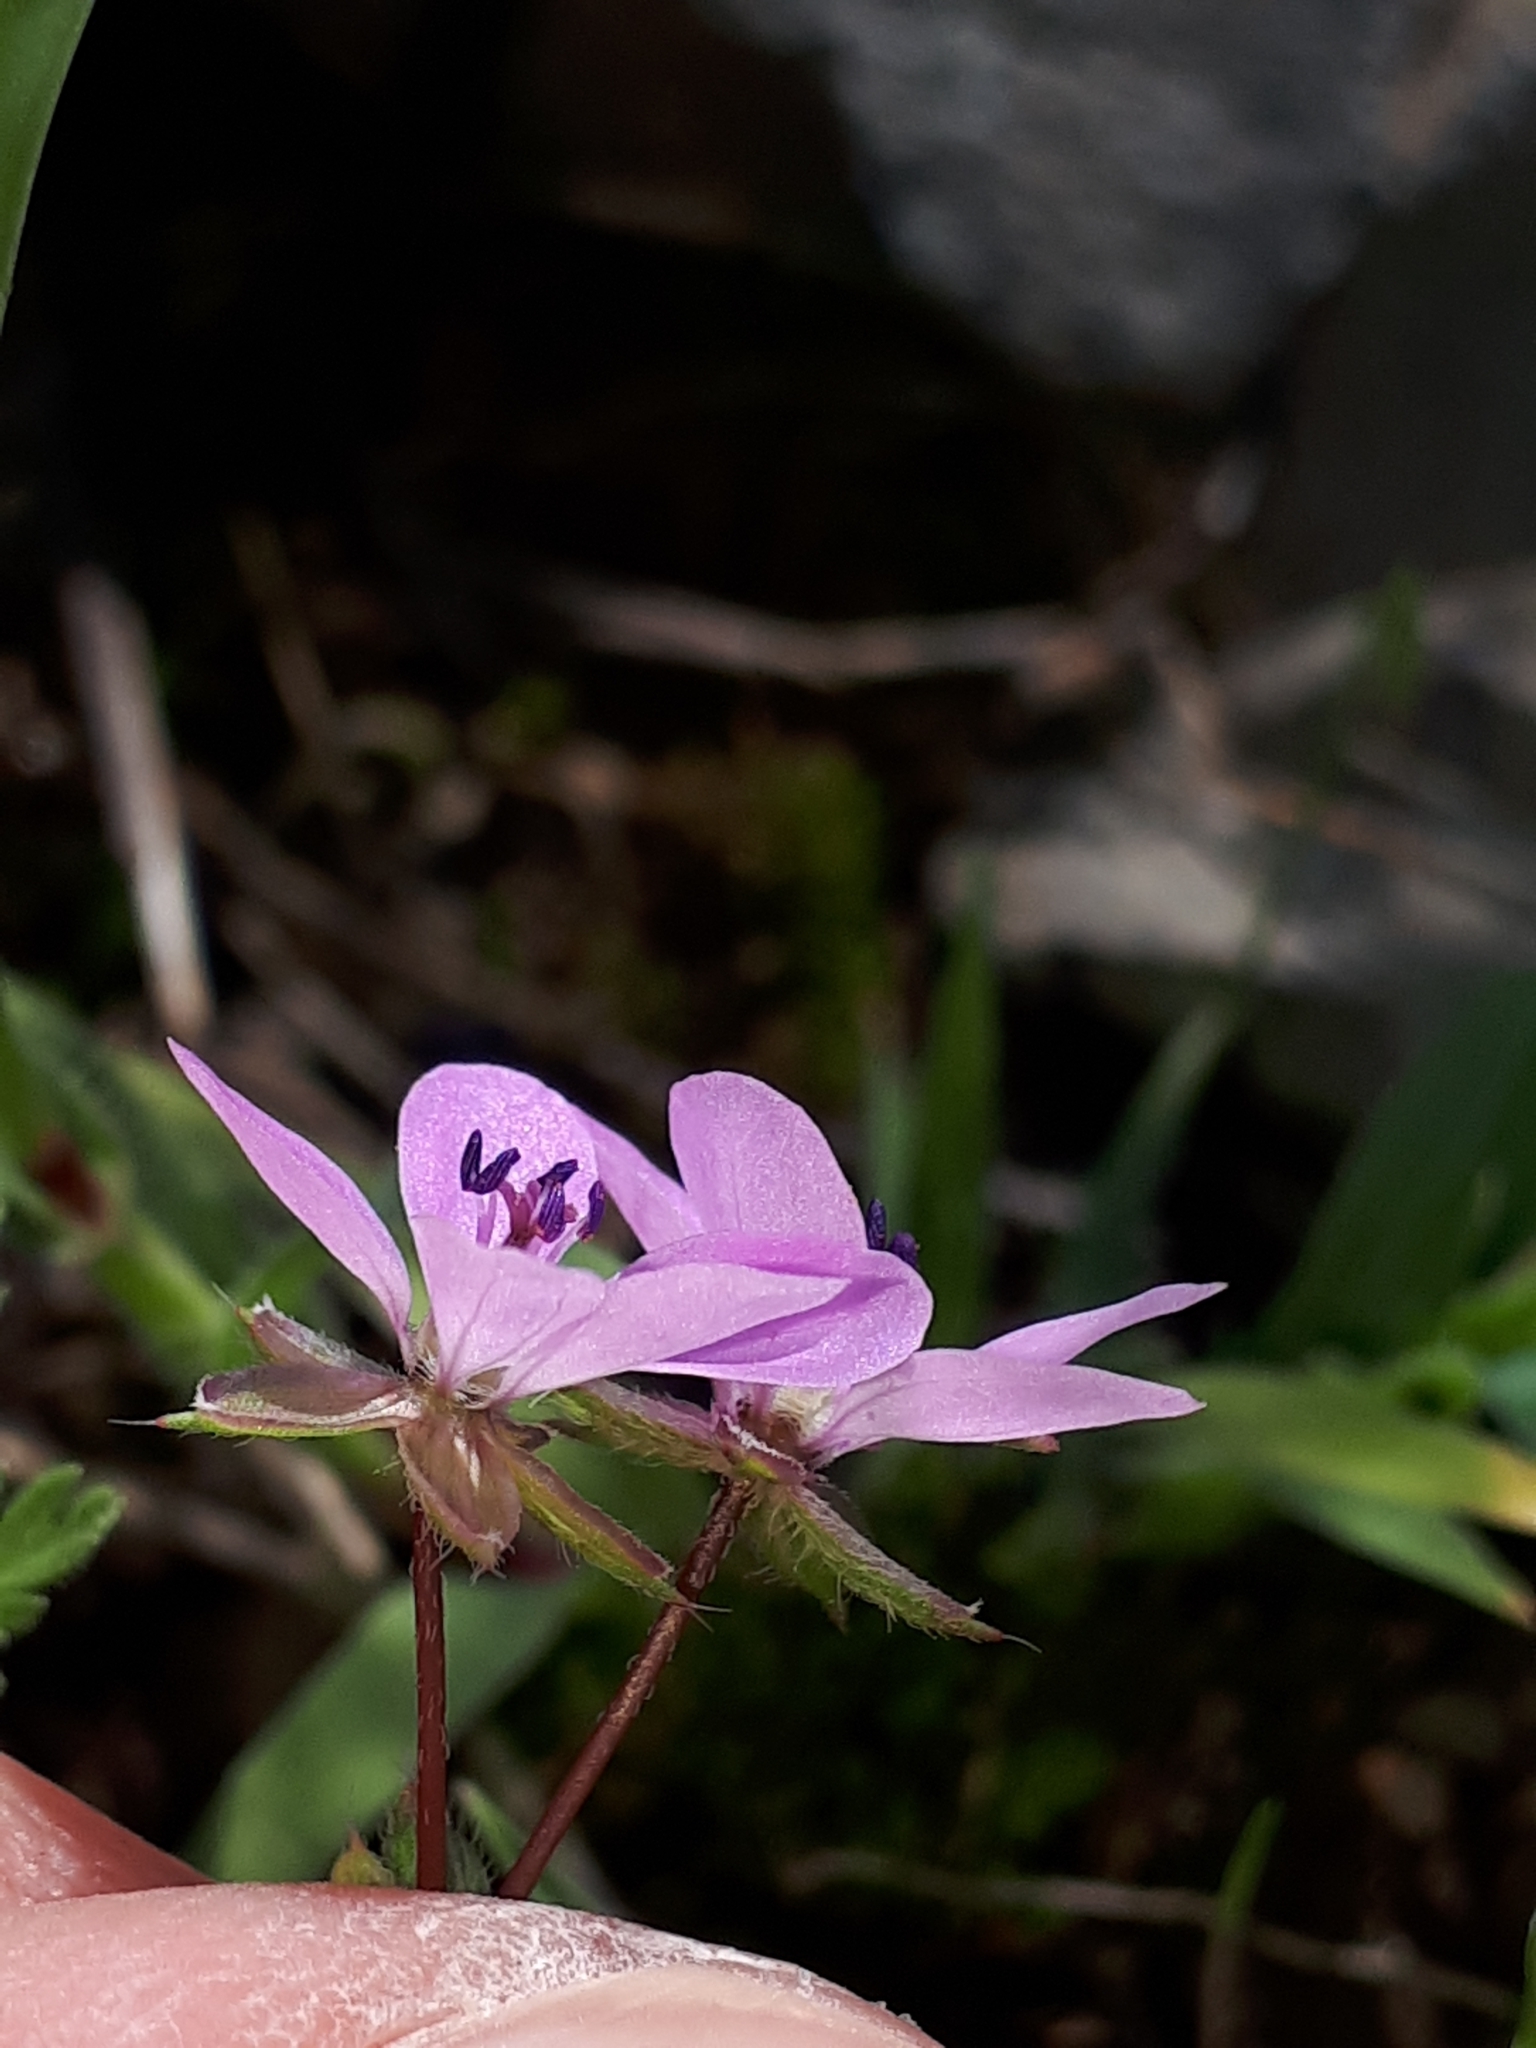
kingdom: Plantae
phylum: Tracheophyta
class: Magnoliopsida
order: Geraniales
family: Geraniaceae
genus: Erodium
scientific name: Erodium cicutarium
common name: Common stork's-bill
